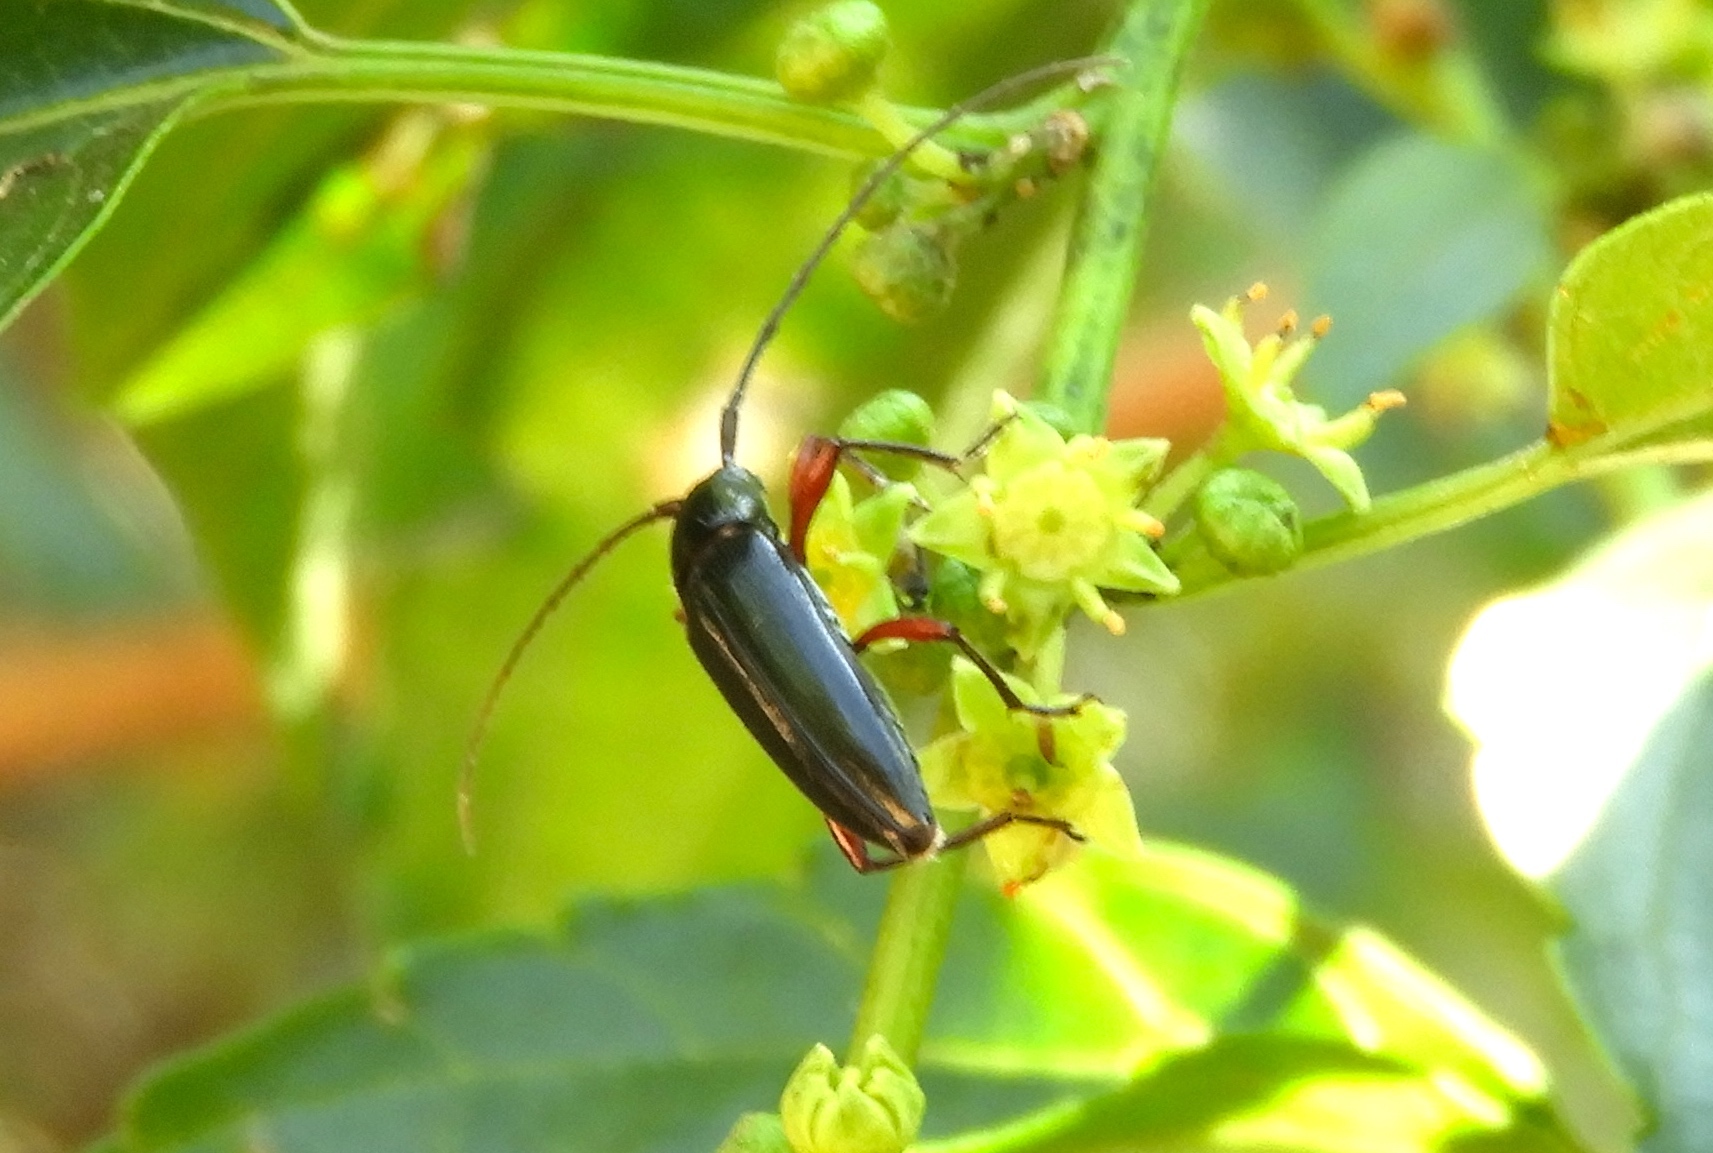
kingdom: Animalia
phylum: Arthropoda
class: Insecta
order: Coleoptera
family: Cerambycidae
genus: Stenosphenus
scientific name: Stenosphenus
